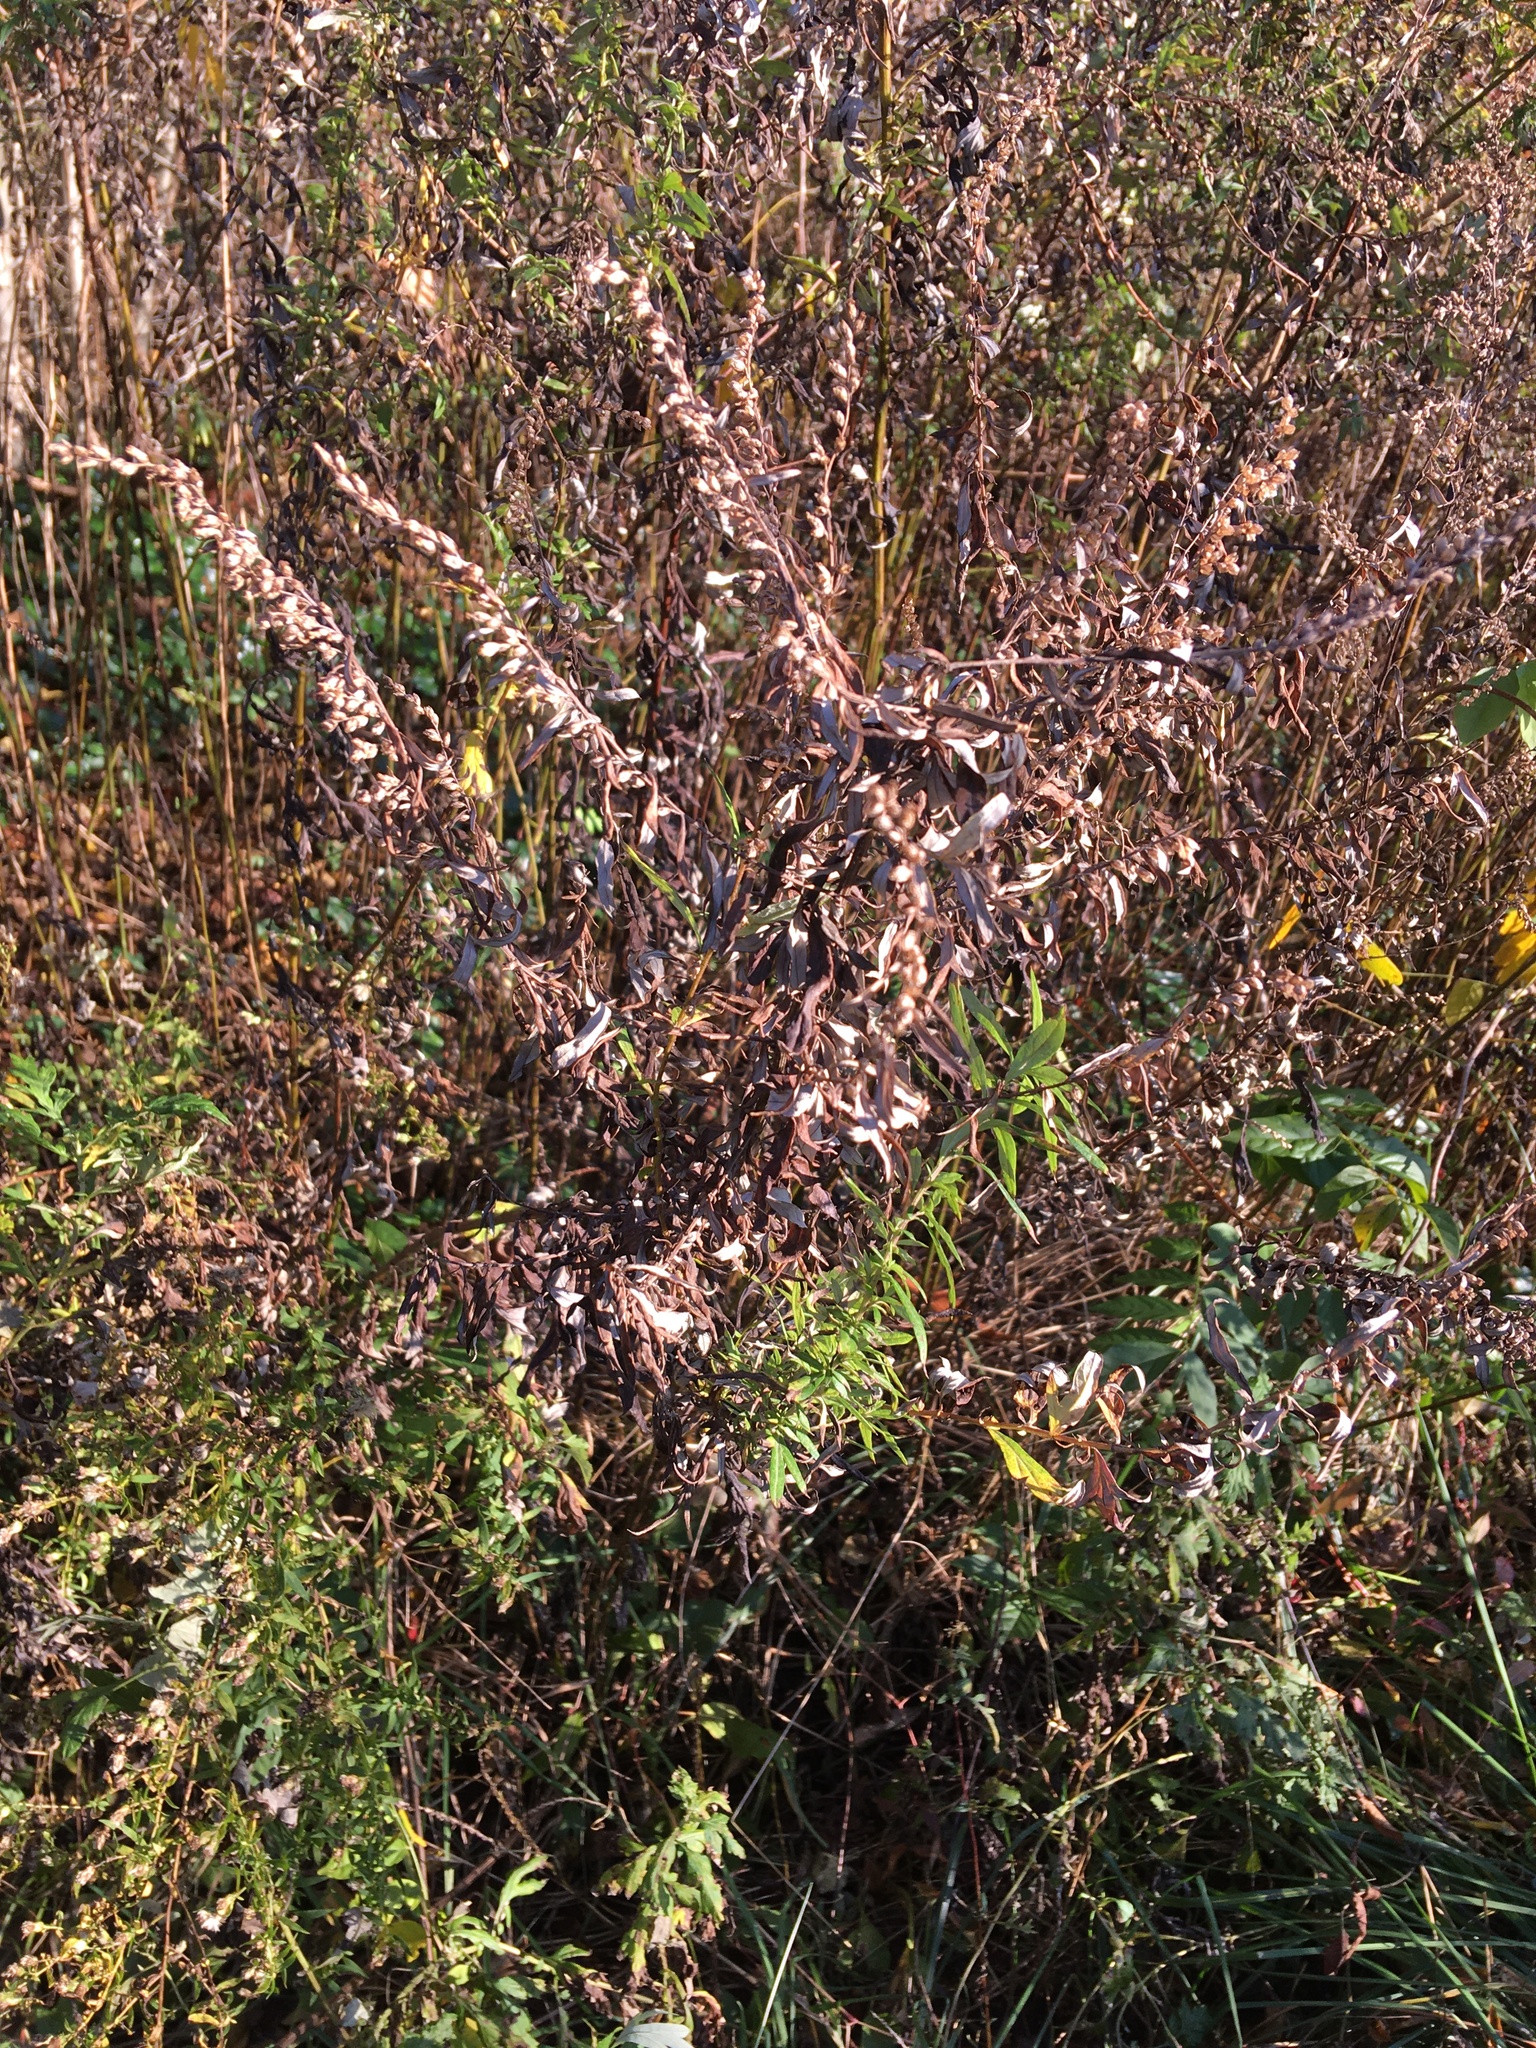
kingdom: Plantae
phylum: Tracheophyta
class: Magnoliopsida
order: Asterales
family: Asteraceae
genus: Artemisia
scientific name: Artemisia vulgaris
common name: Mugwort
